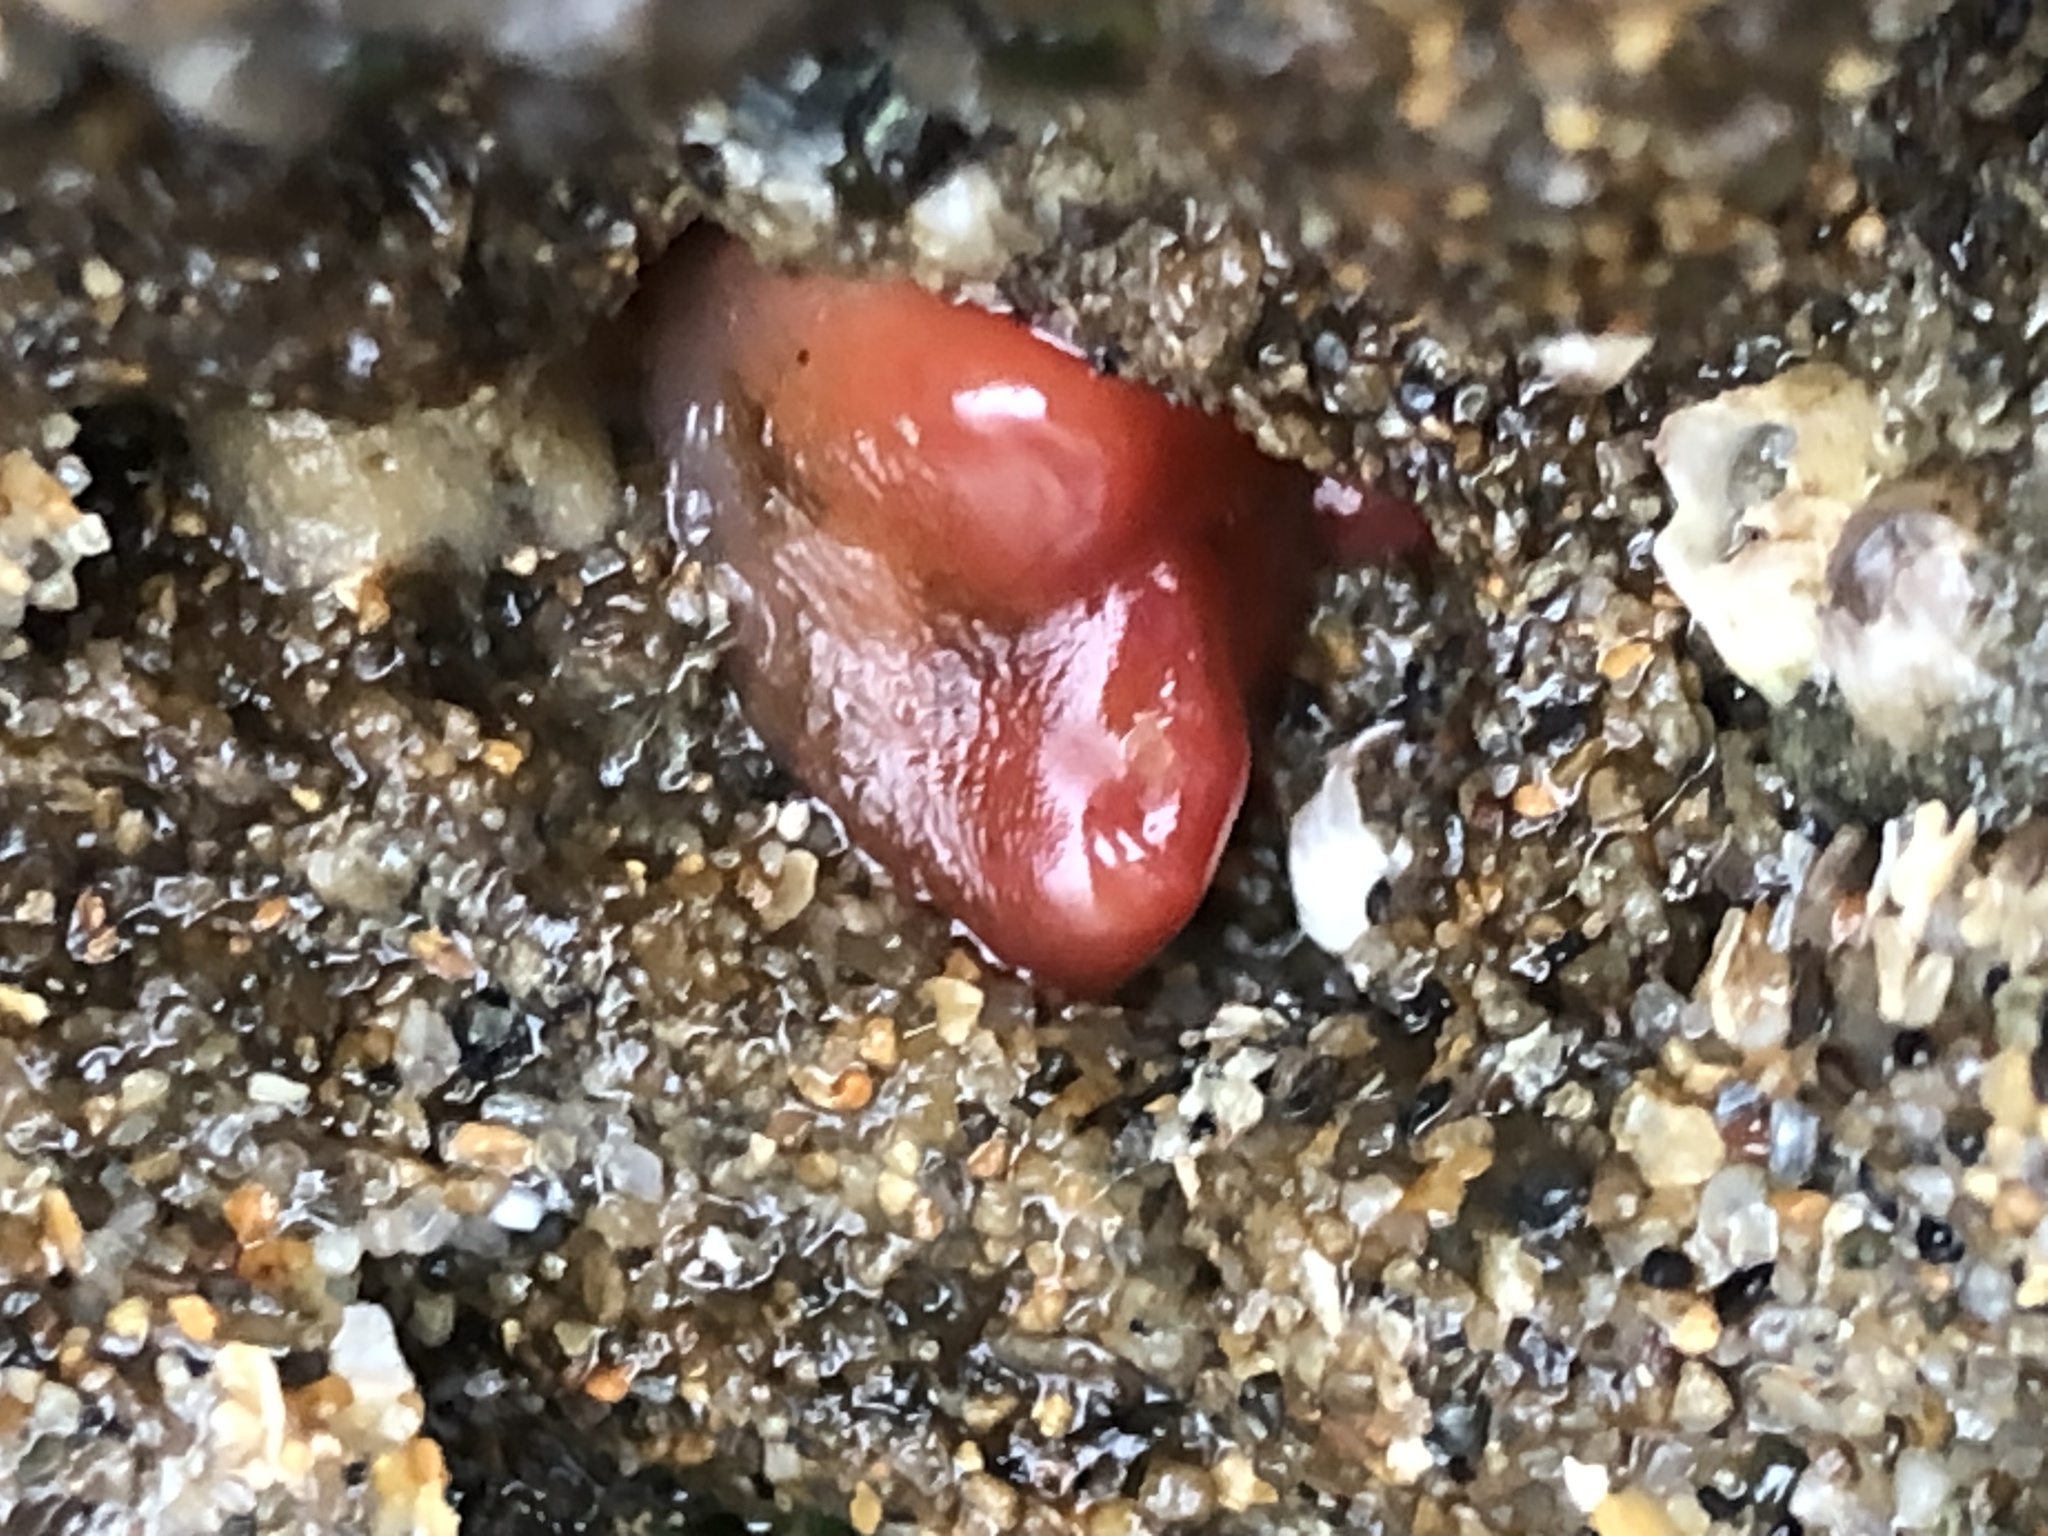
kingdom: Animalia
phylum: Mollusca
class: Bivalvia
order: Adapedonta
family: Hiatellidae
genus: Hiatella
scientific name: Hiatella arctica
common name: Arctic hiatella
